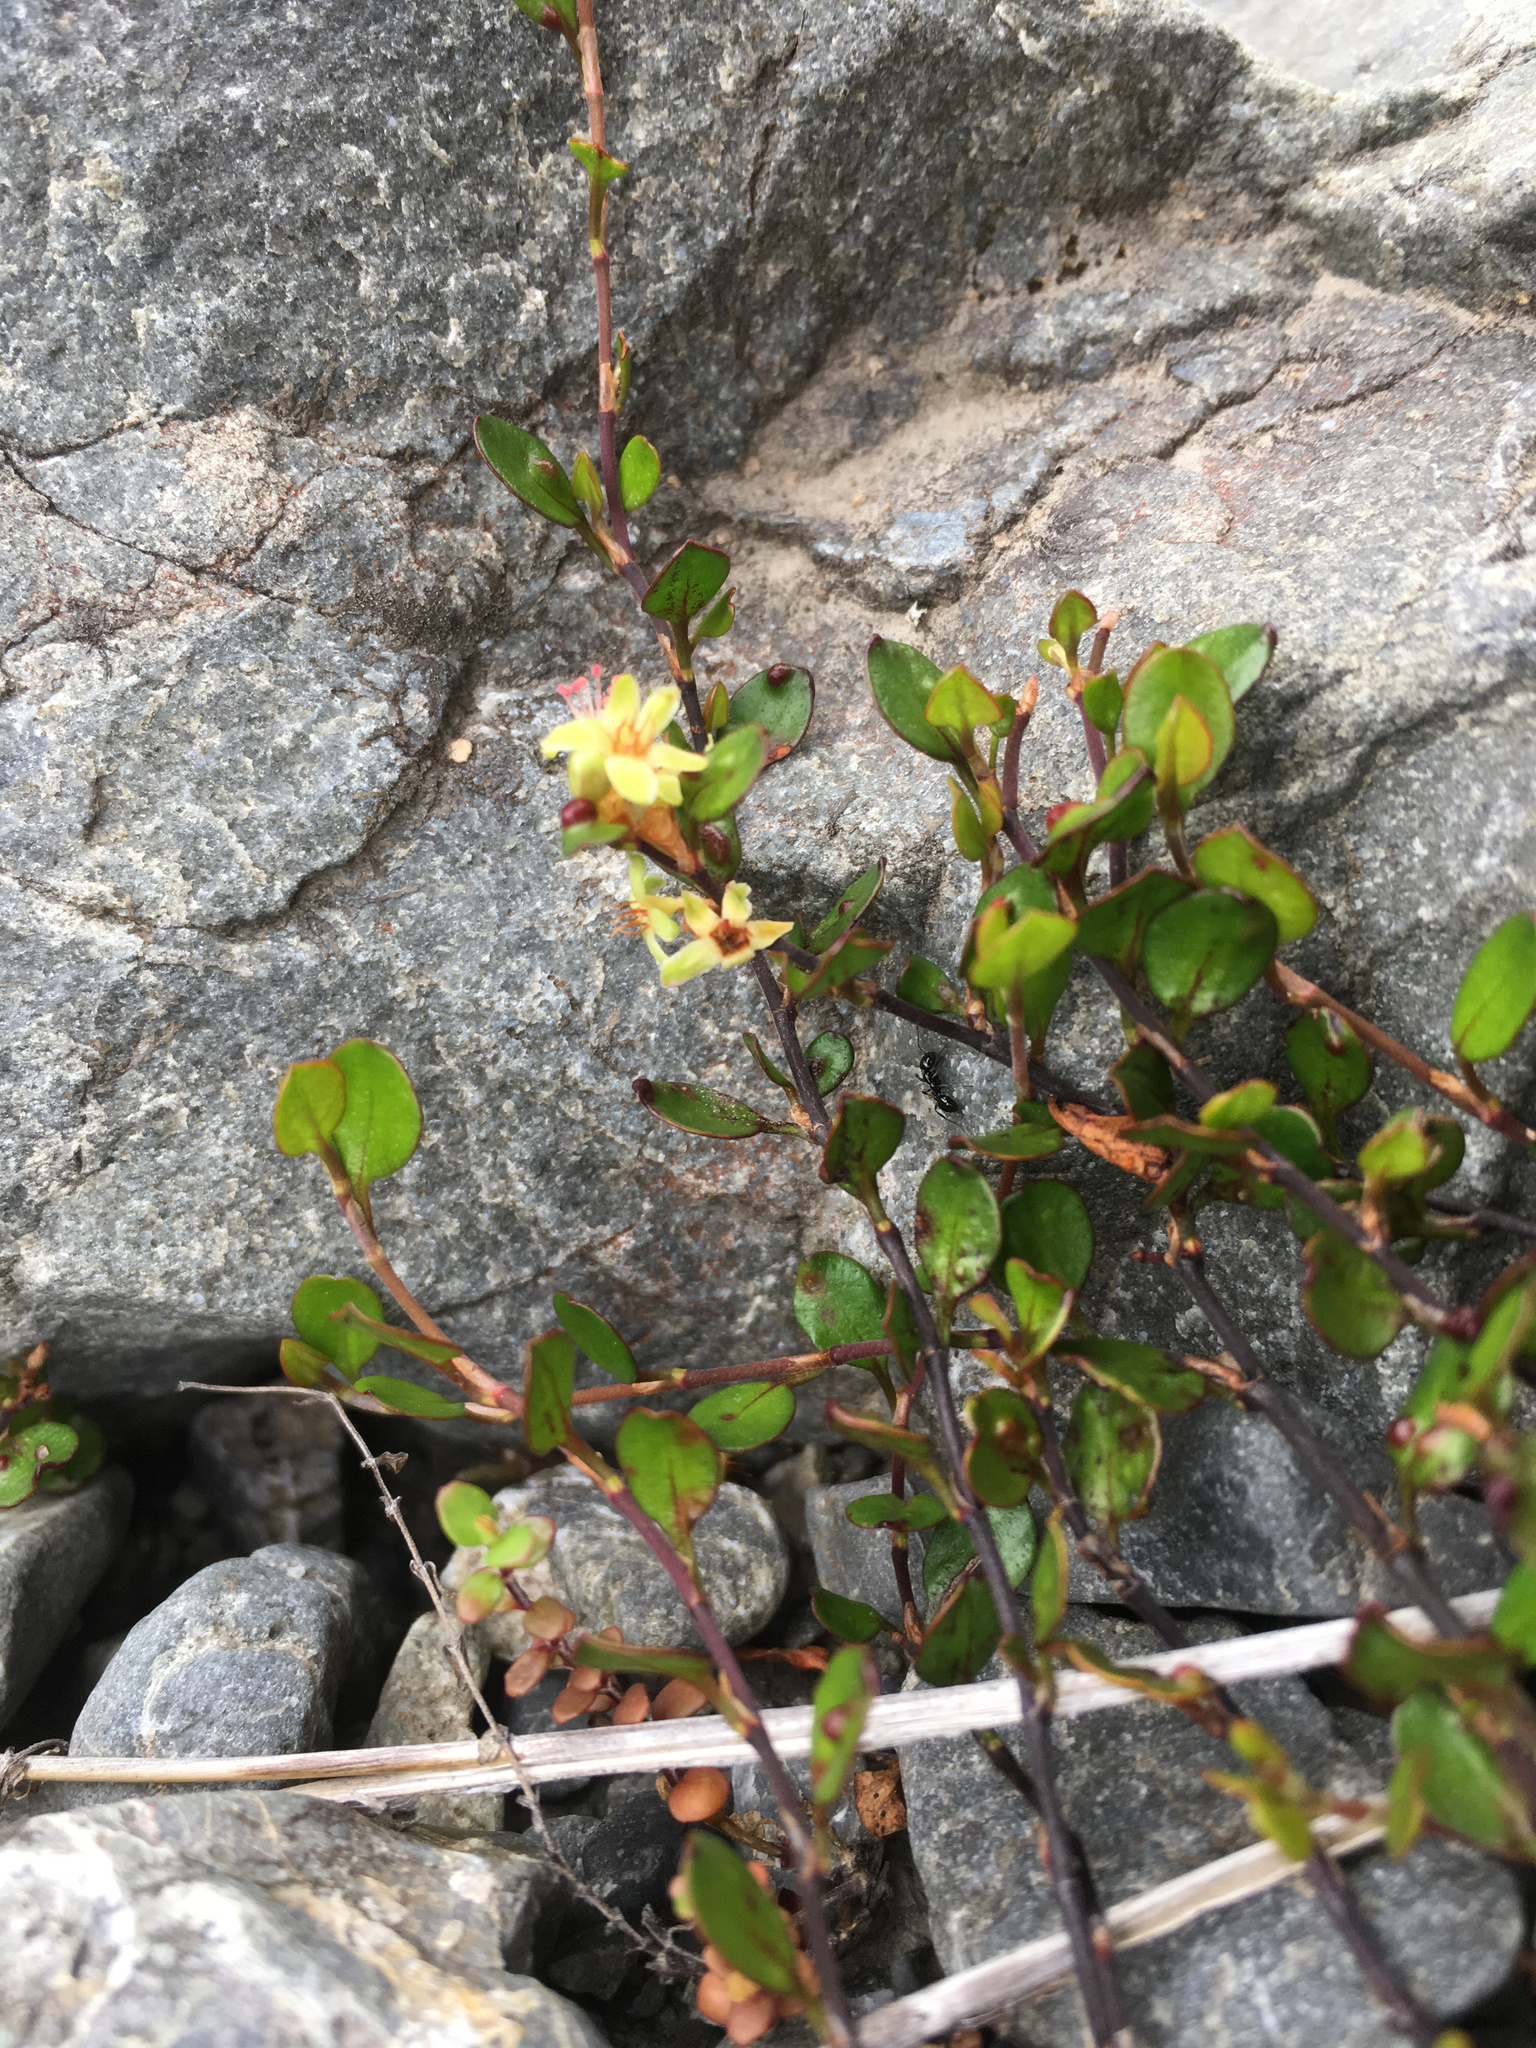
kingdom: Plantae
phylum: Tracheophyta
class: Magnoliopsida
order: Caryophyllales
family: Polygonaceae
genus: Muehlenbeckia
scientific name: Muehlenbeckia axillaris
